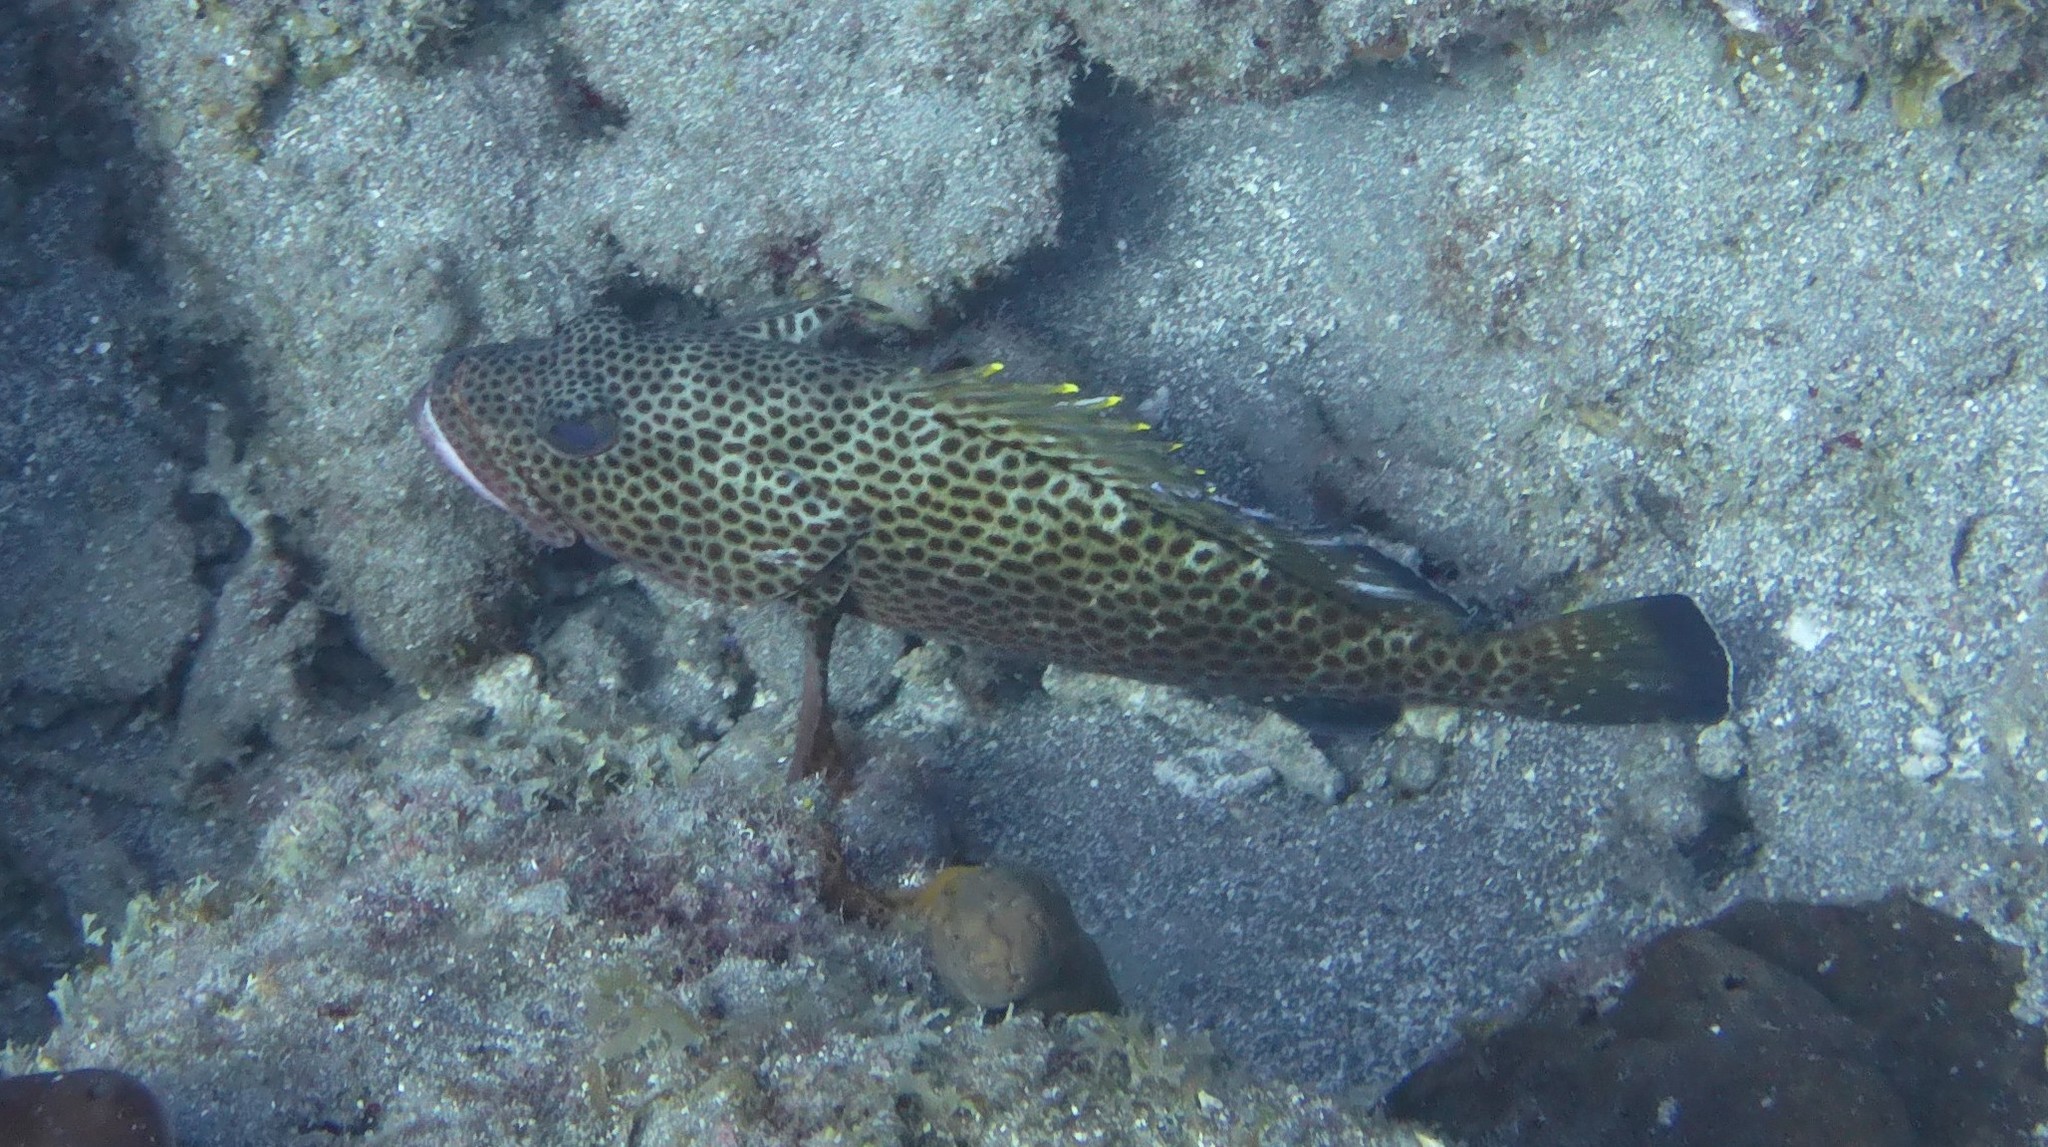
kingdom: Animalia
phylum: Chordata
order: Perciformes
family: Serranidae
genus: Epinephelus
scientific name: Epinephelus guttatus
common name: Red hind
